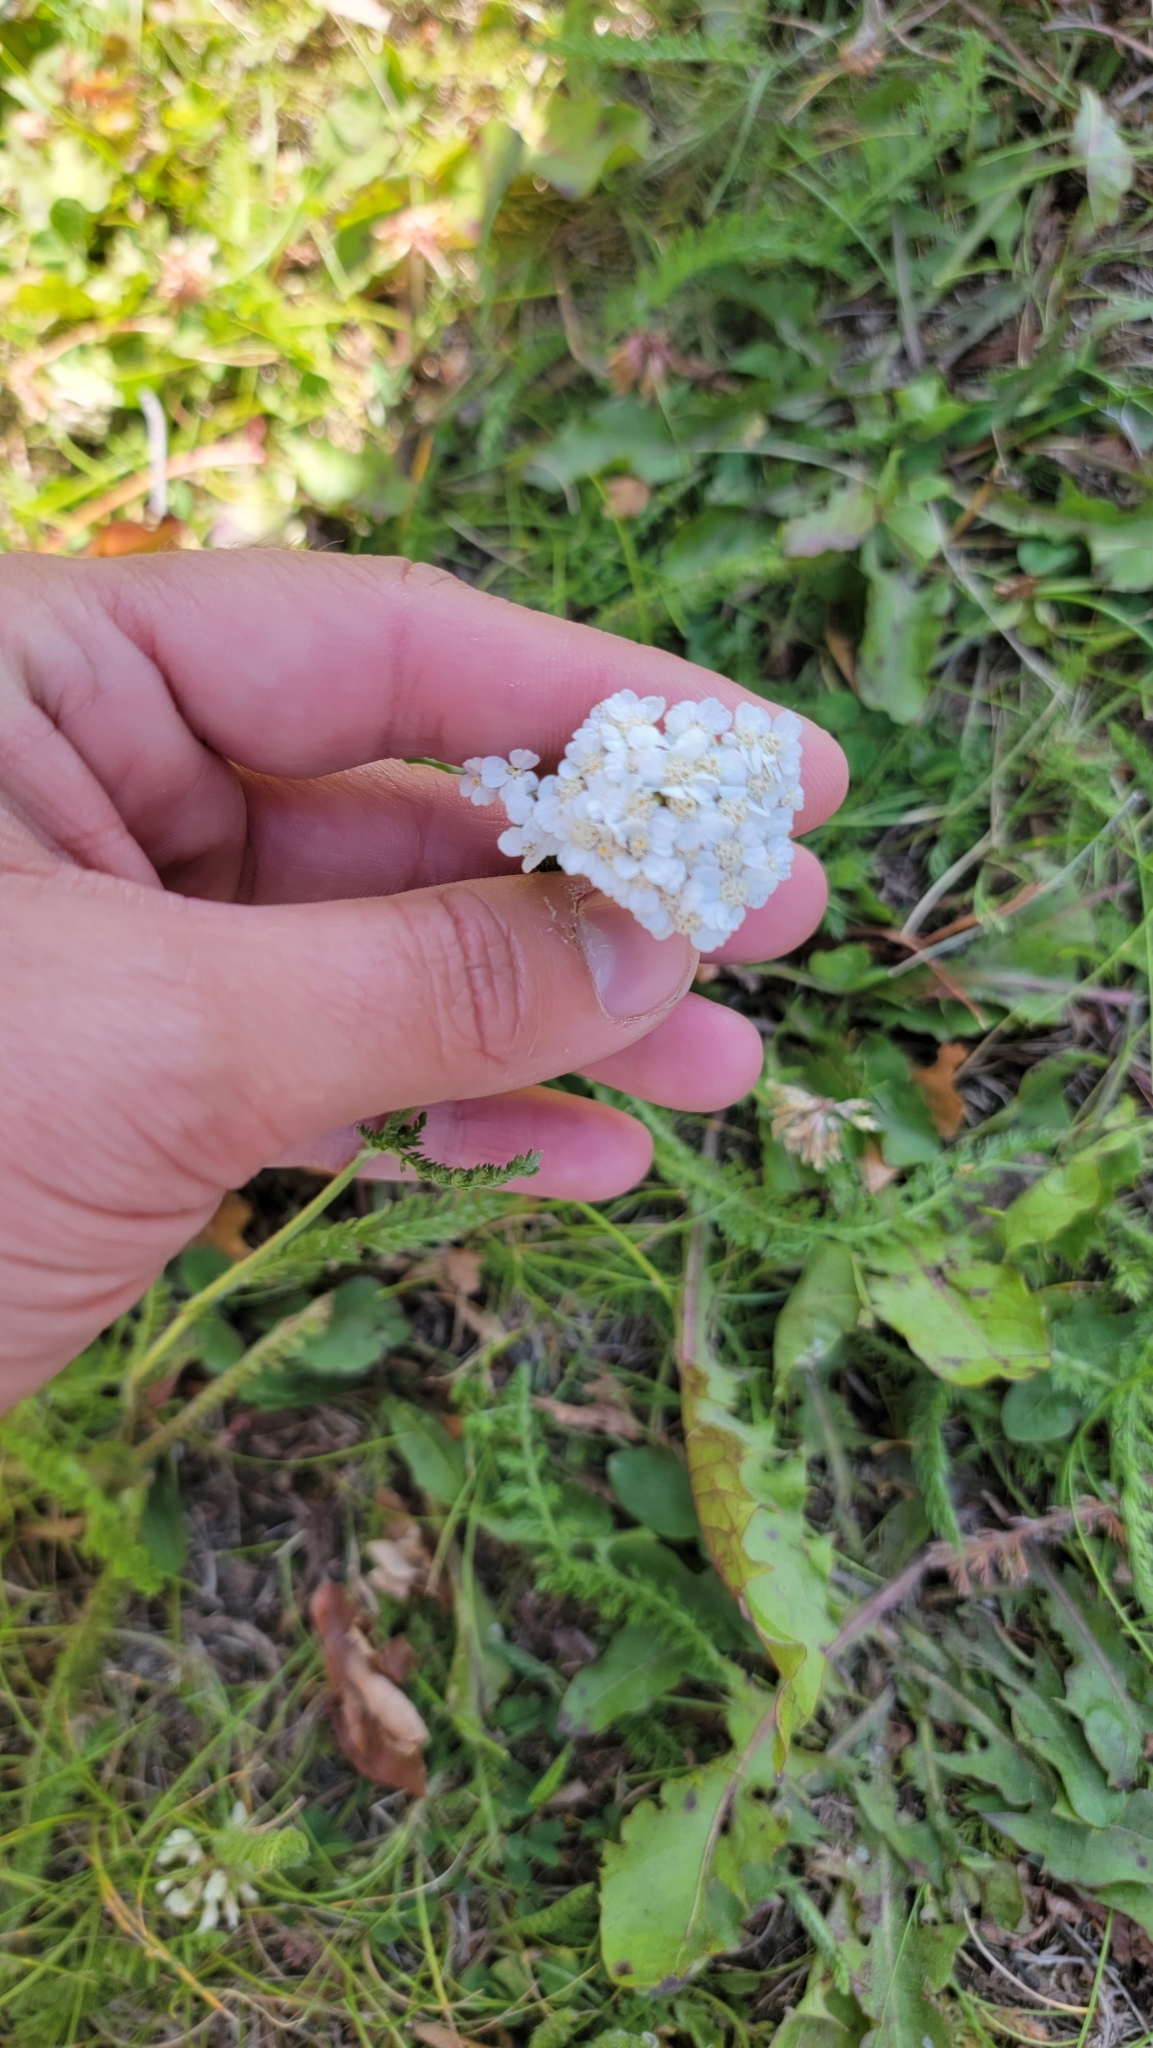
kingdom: Plantae
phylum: Tracheophyta
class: Magnoliopsida
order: Asterales
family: Asteraceae
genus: Achillea
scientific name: Achillea millefolium
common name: Yarrow
